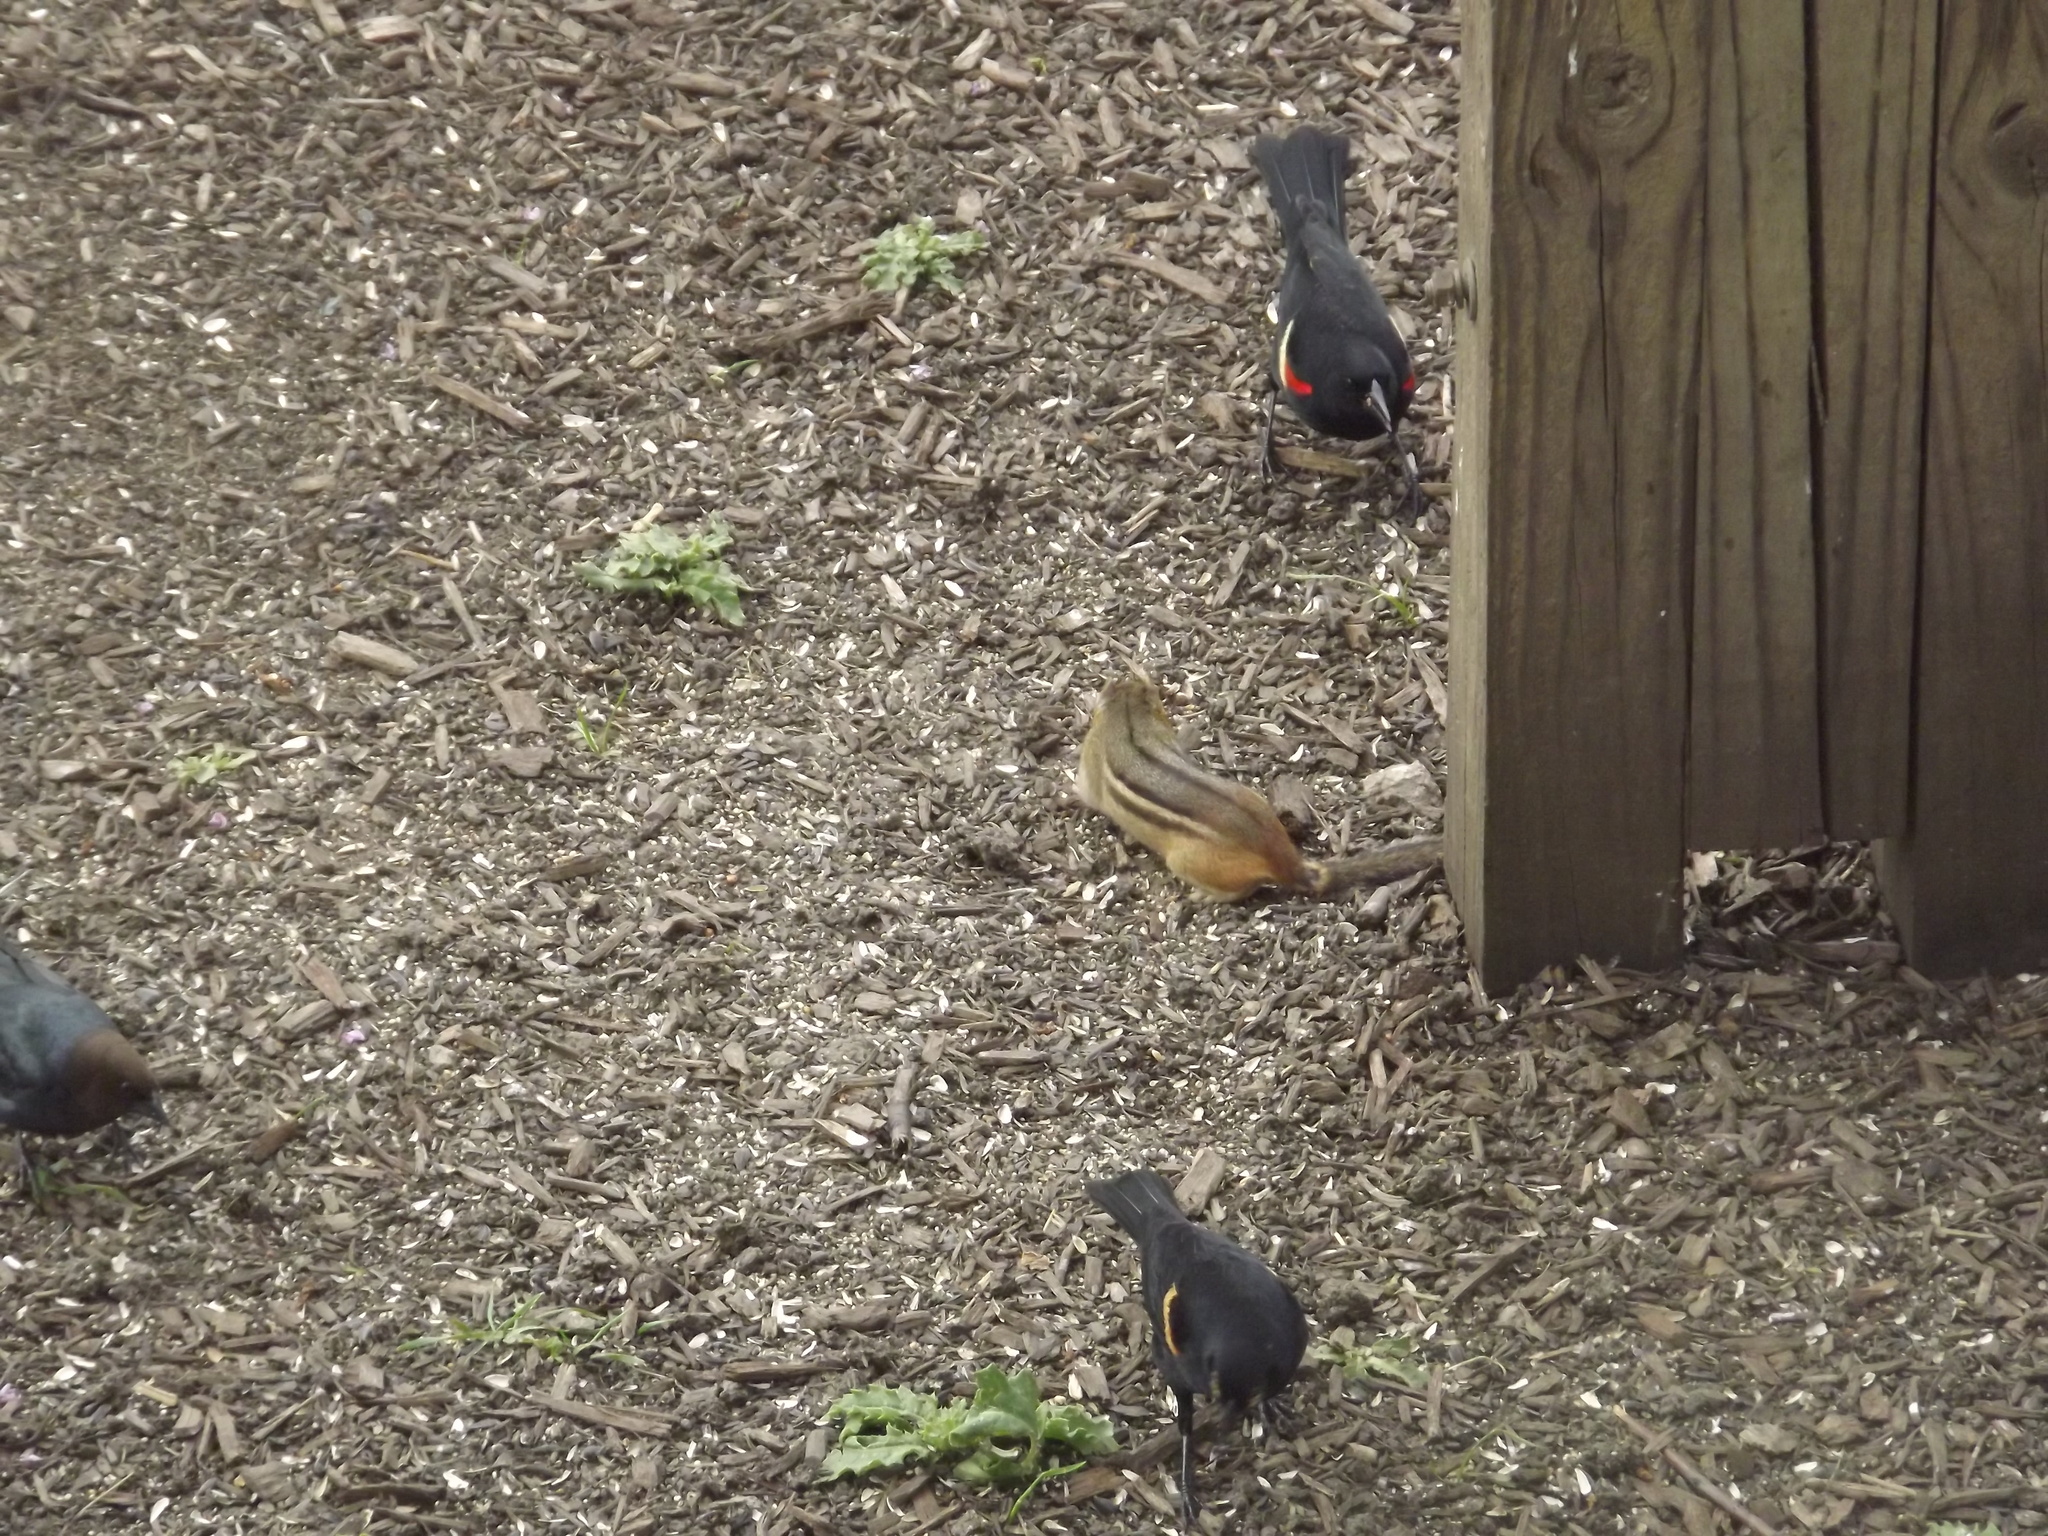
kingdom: Animalia
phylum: Chordata
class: Mammalia
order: Rodentia
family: Sciuridae
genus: Tamias
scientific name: Tamias striatus
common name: Eastern chipmunk
